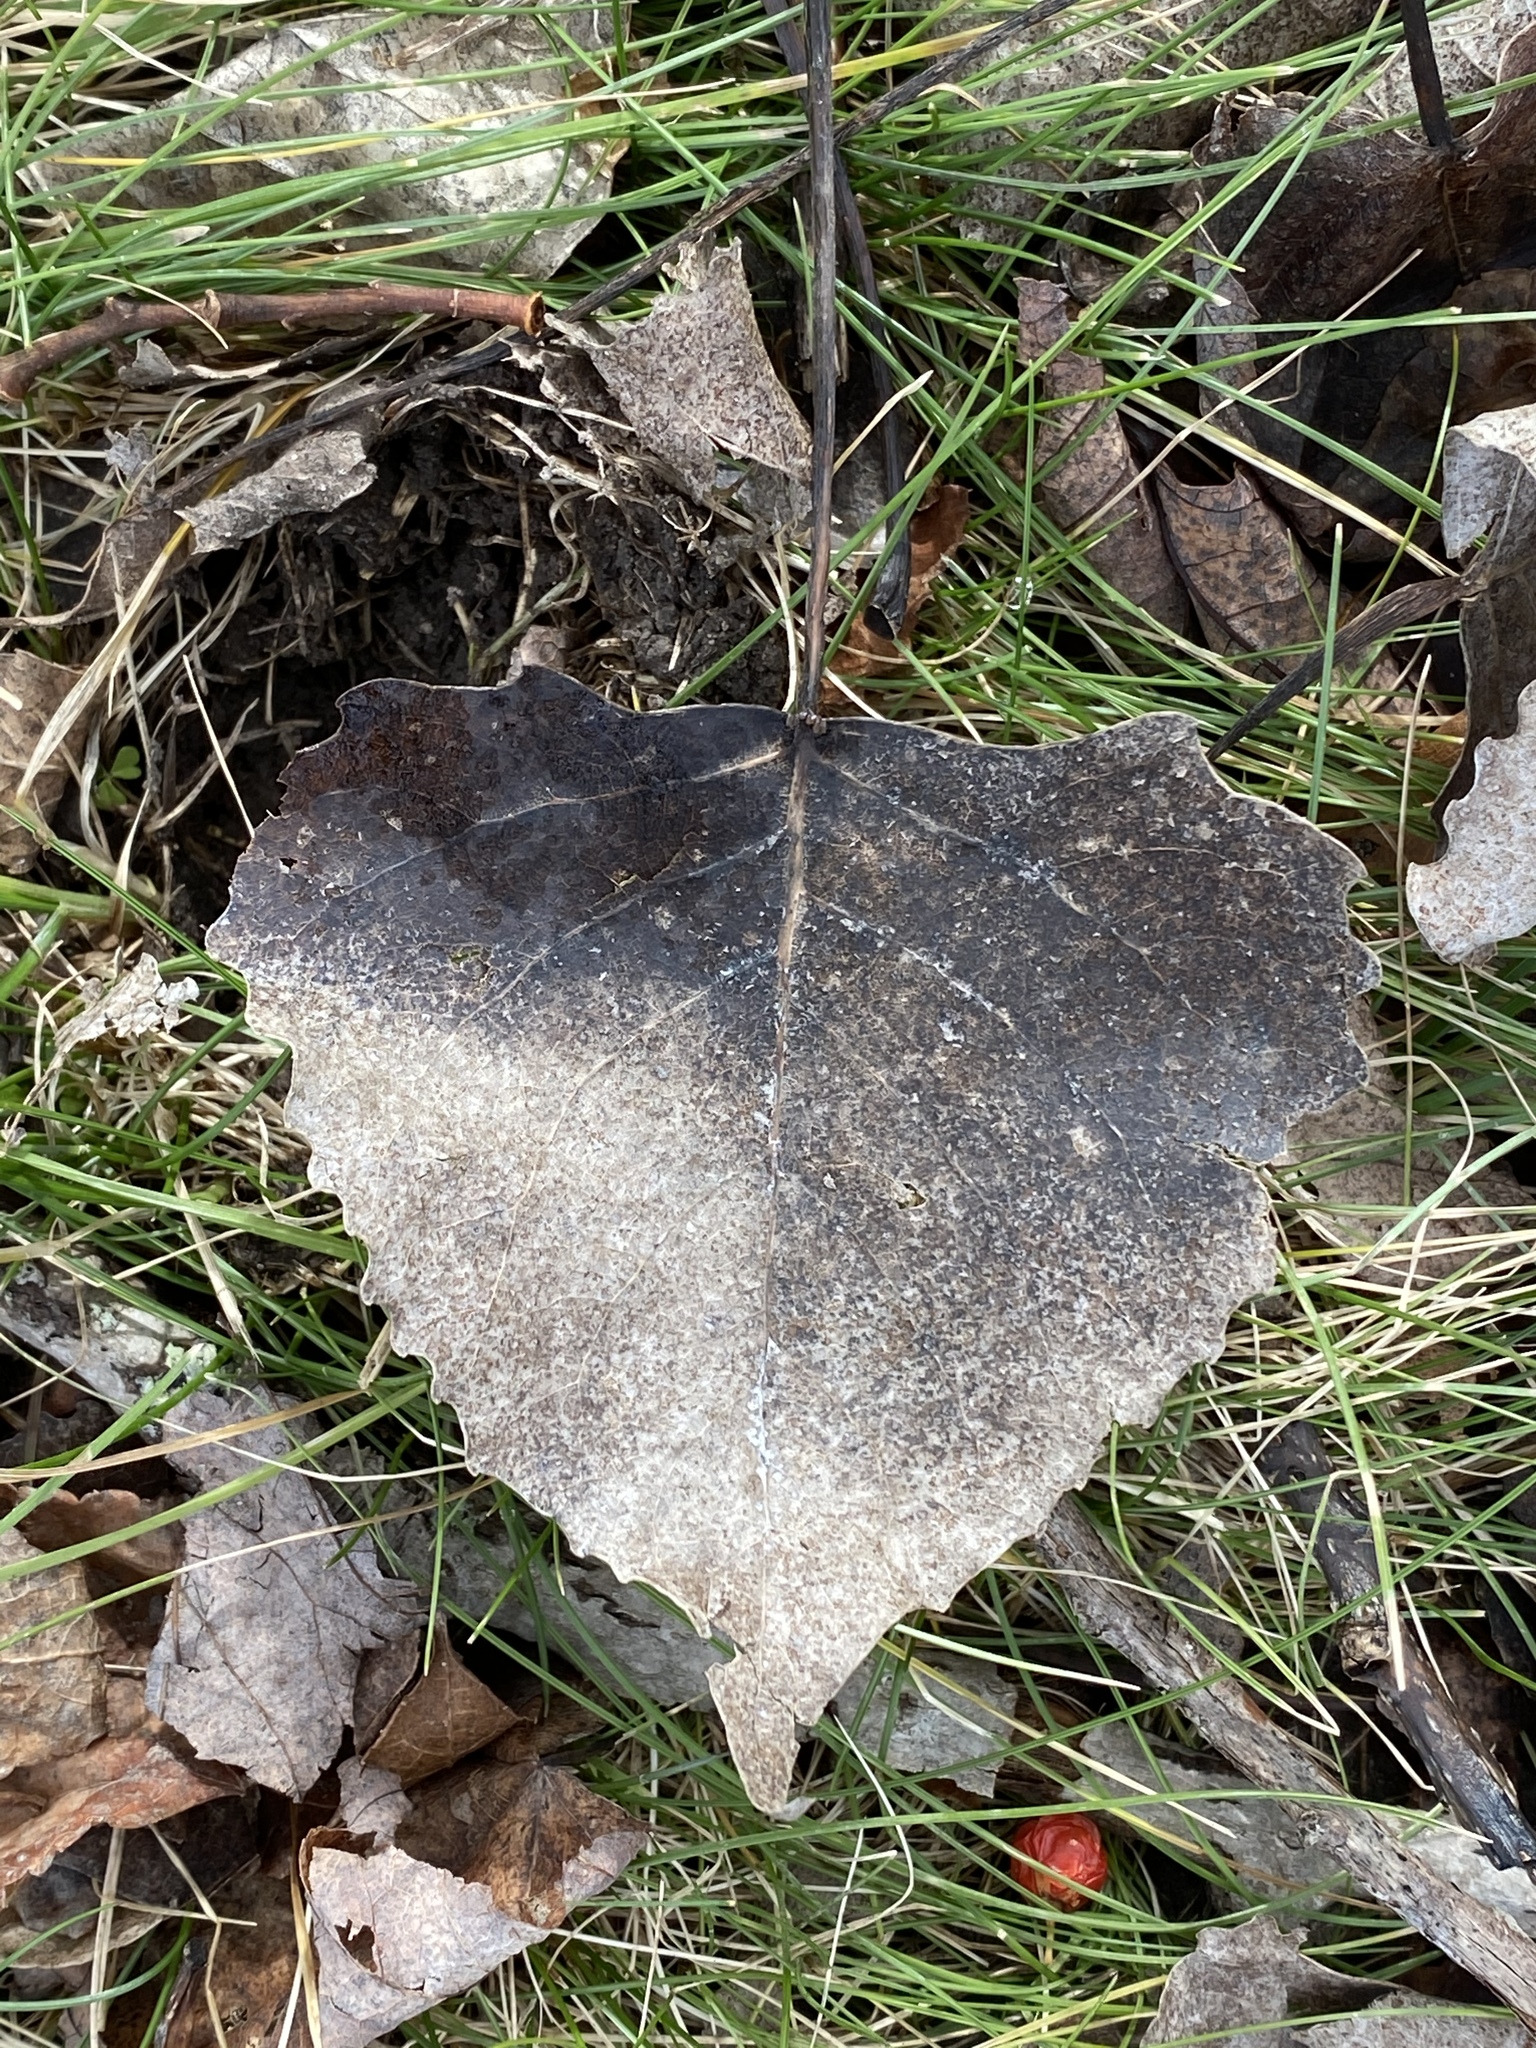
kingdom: Plantae
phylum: Tracheophyta
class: Magnoliopsida
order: Malpighiales
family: Salicaceae
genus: Populus
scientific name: Populus deltoides
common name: Eastern cottonwood
